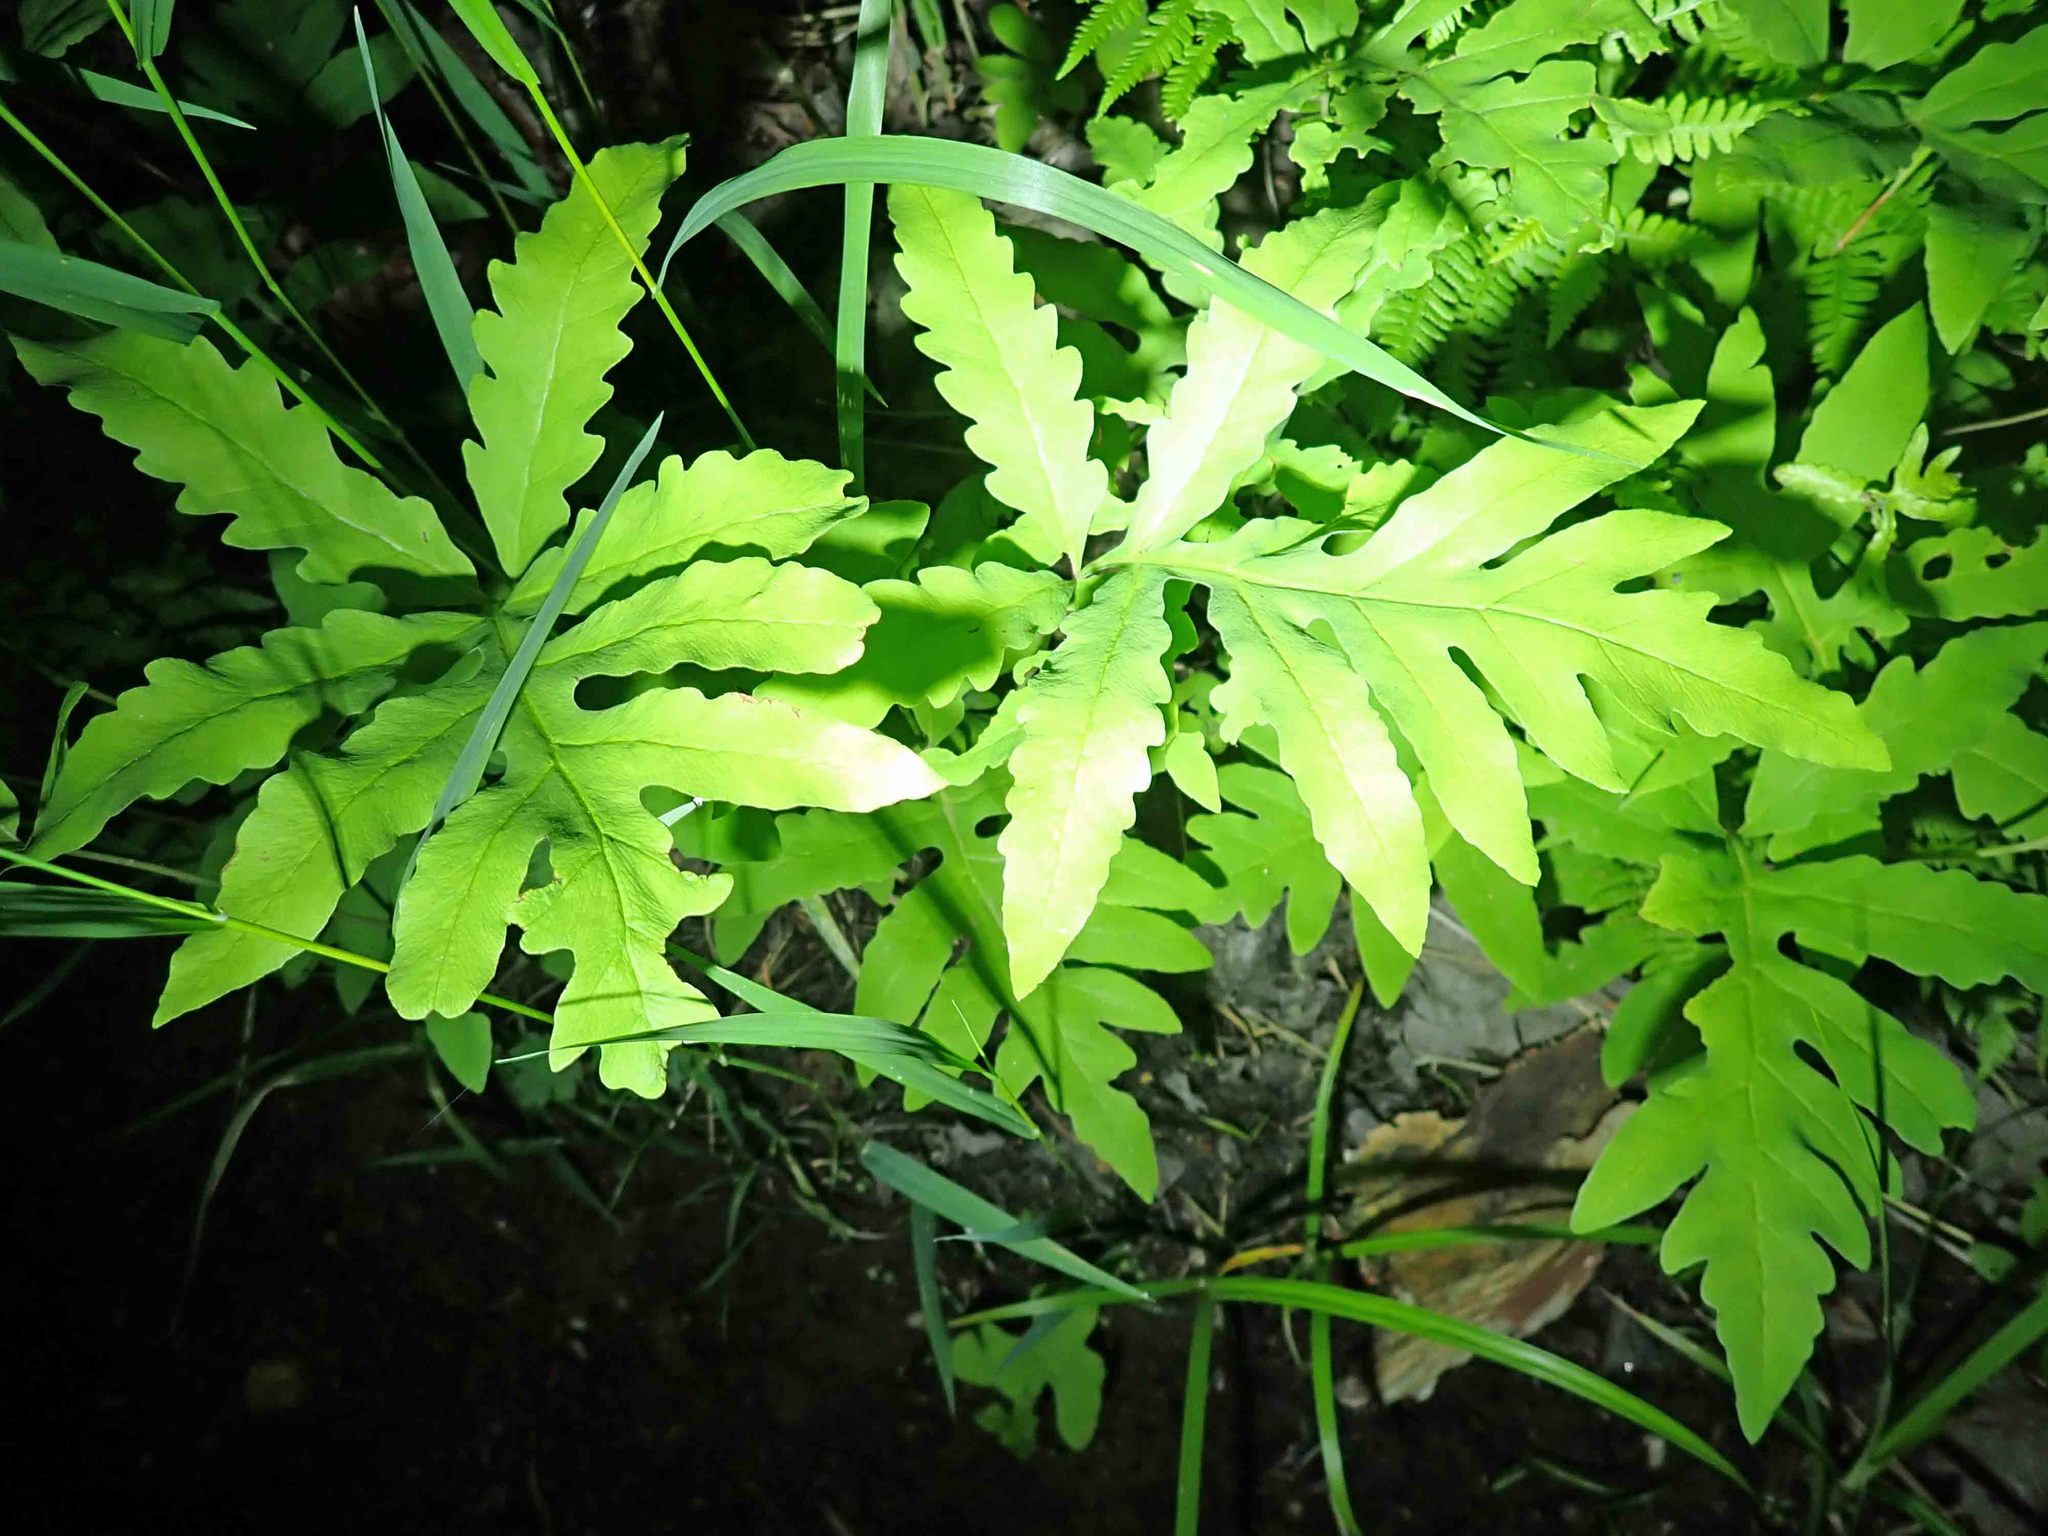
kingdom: Plantae
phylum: Tracheophyta
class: Polypodiopsida
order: Polypodiales
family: Onocleaceae
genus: Onoclea
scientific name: Onoclea sensibilis
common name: Sensitive fern
